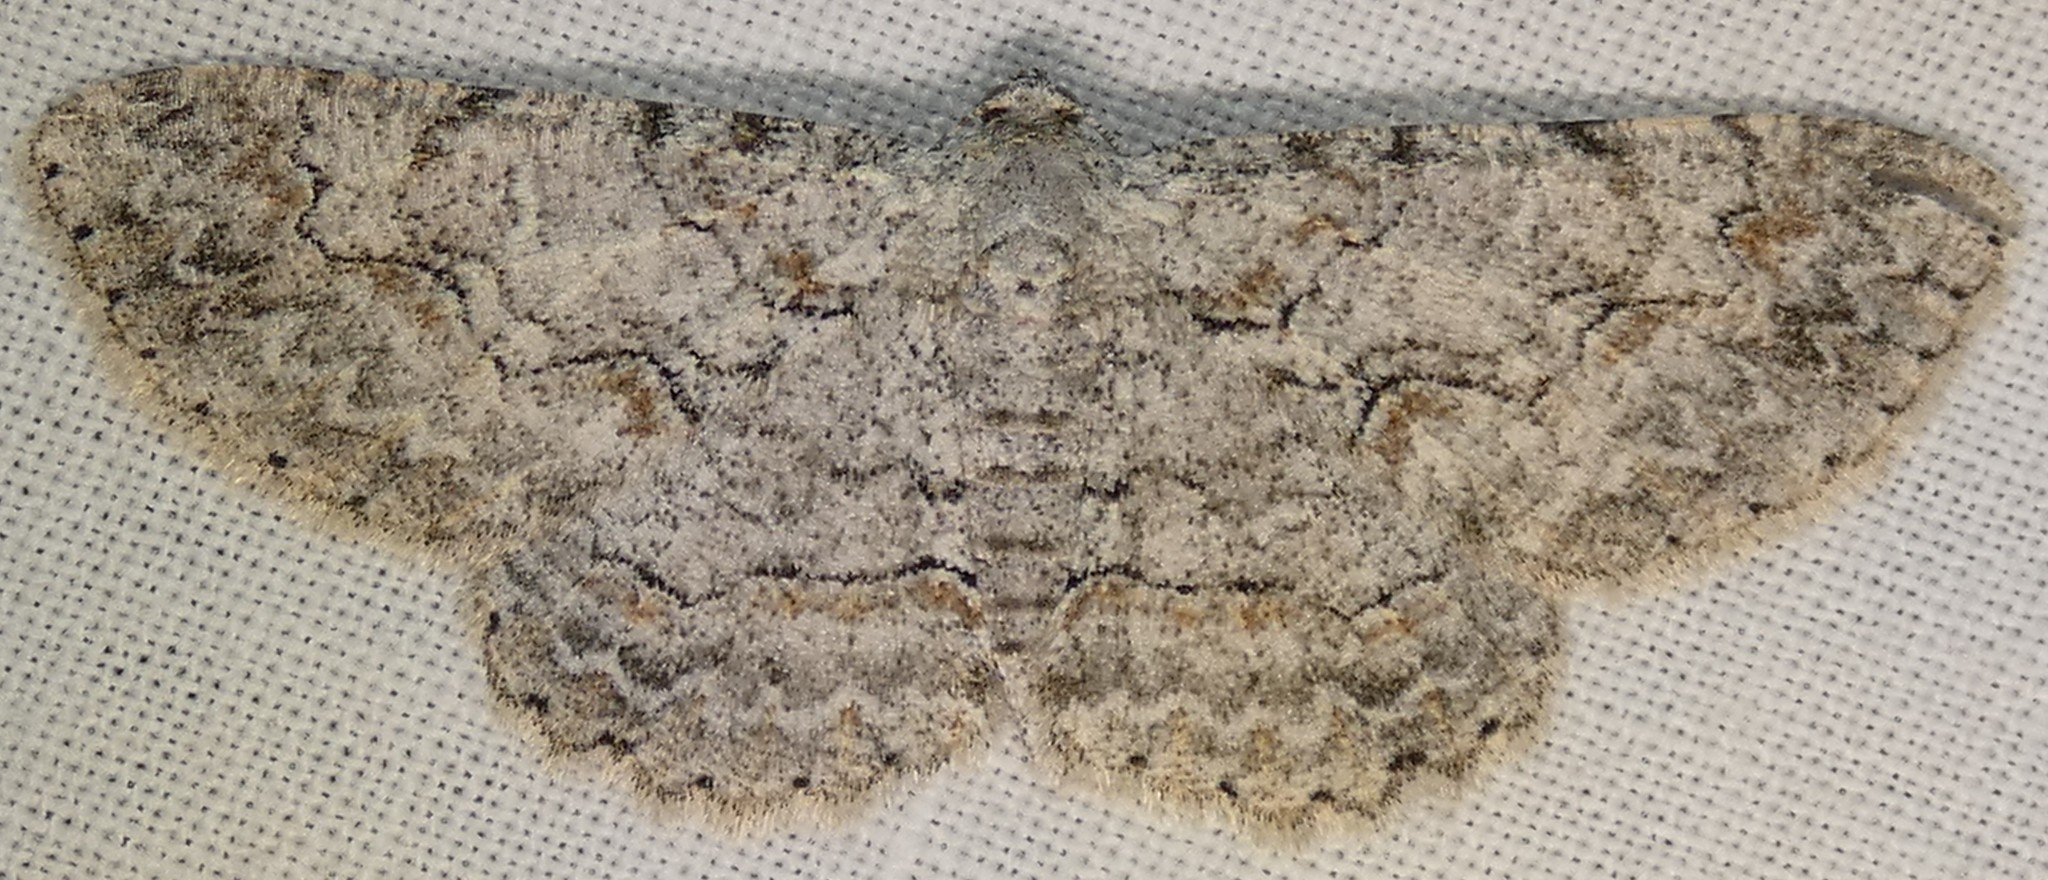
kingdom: Animalia
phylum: Arthropoda
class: Insecta
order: Lepidoptera
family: Geometridae
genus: Iridopsis
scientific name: Iridopsis defectaria
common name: Brown-shaded gray
